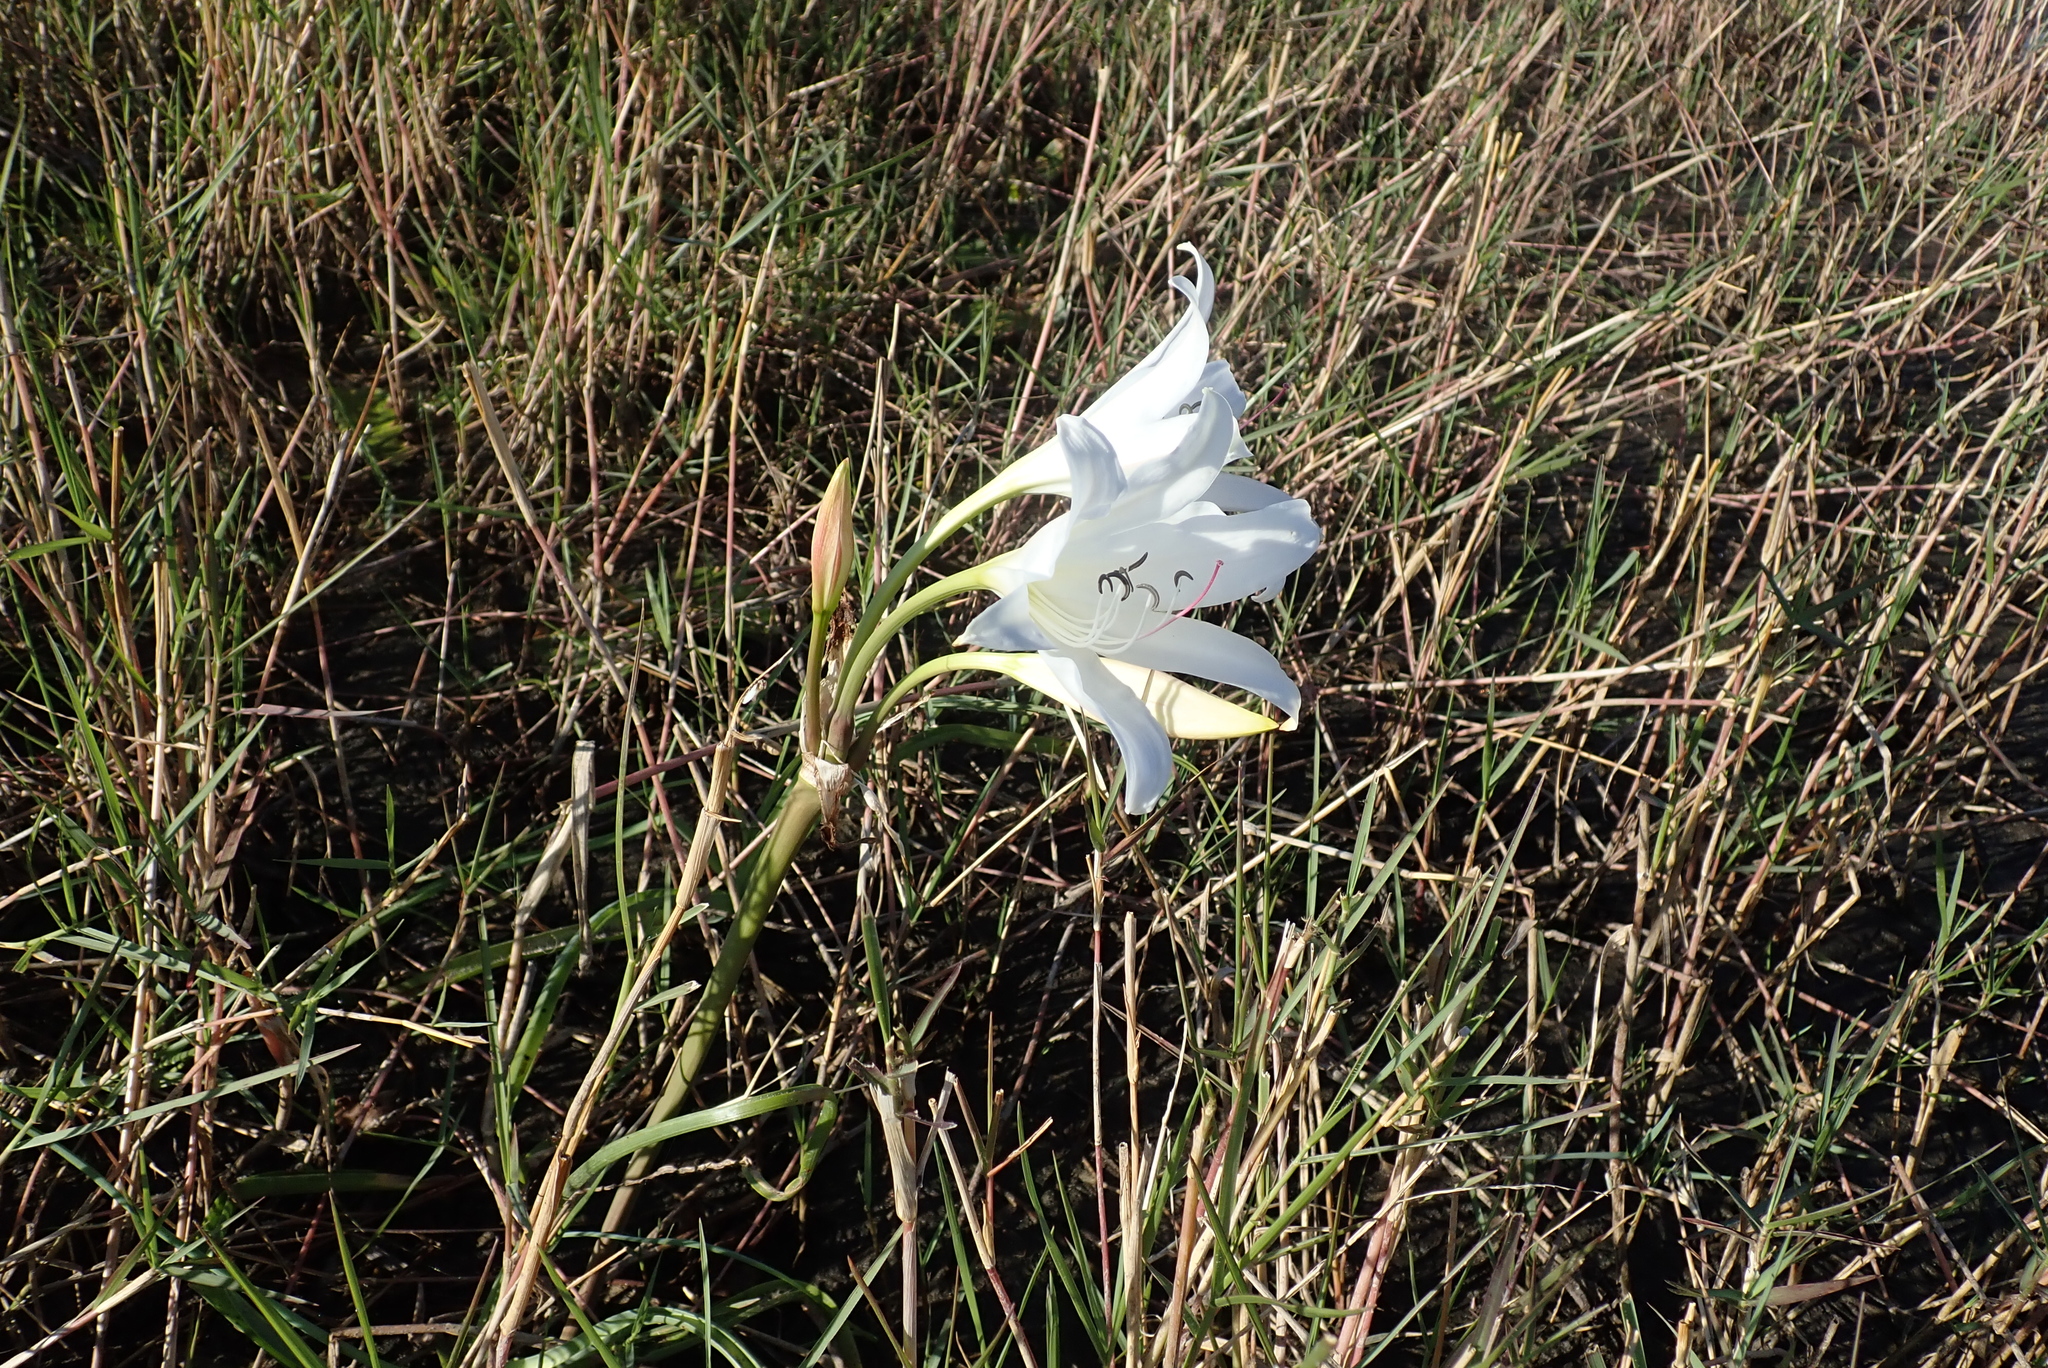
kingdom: Plantae
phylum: Tracheophyta
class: Liliopsida
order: Asparagales
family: Amaryllidaceae
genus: Crinum
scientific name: Crinum carolo-schmidtii
